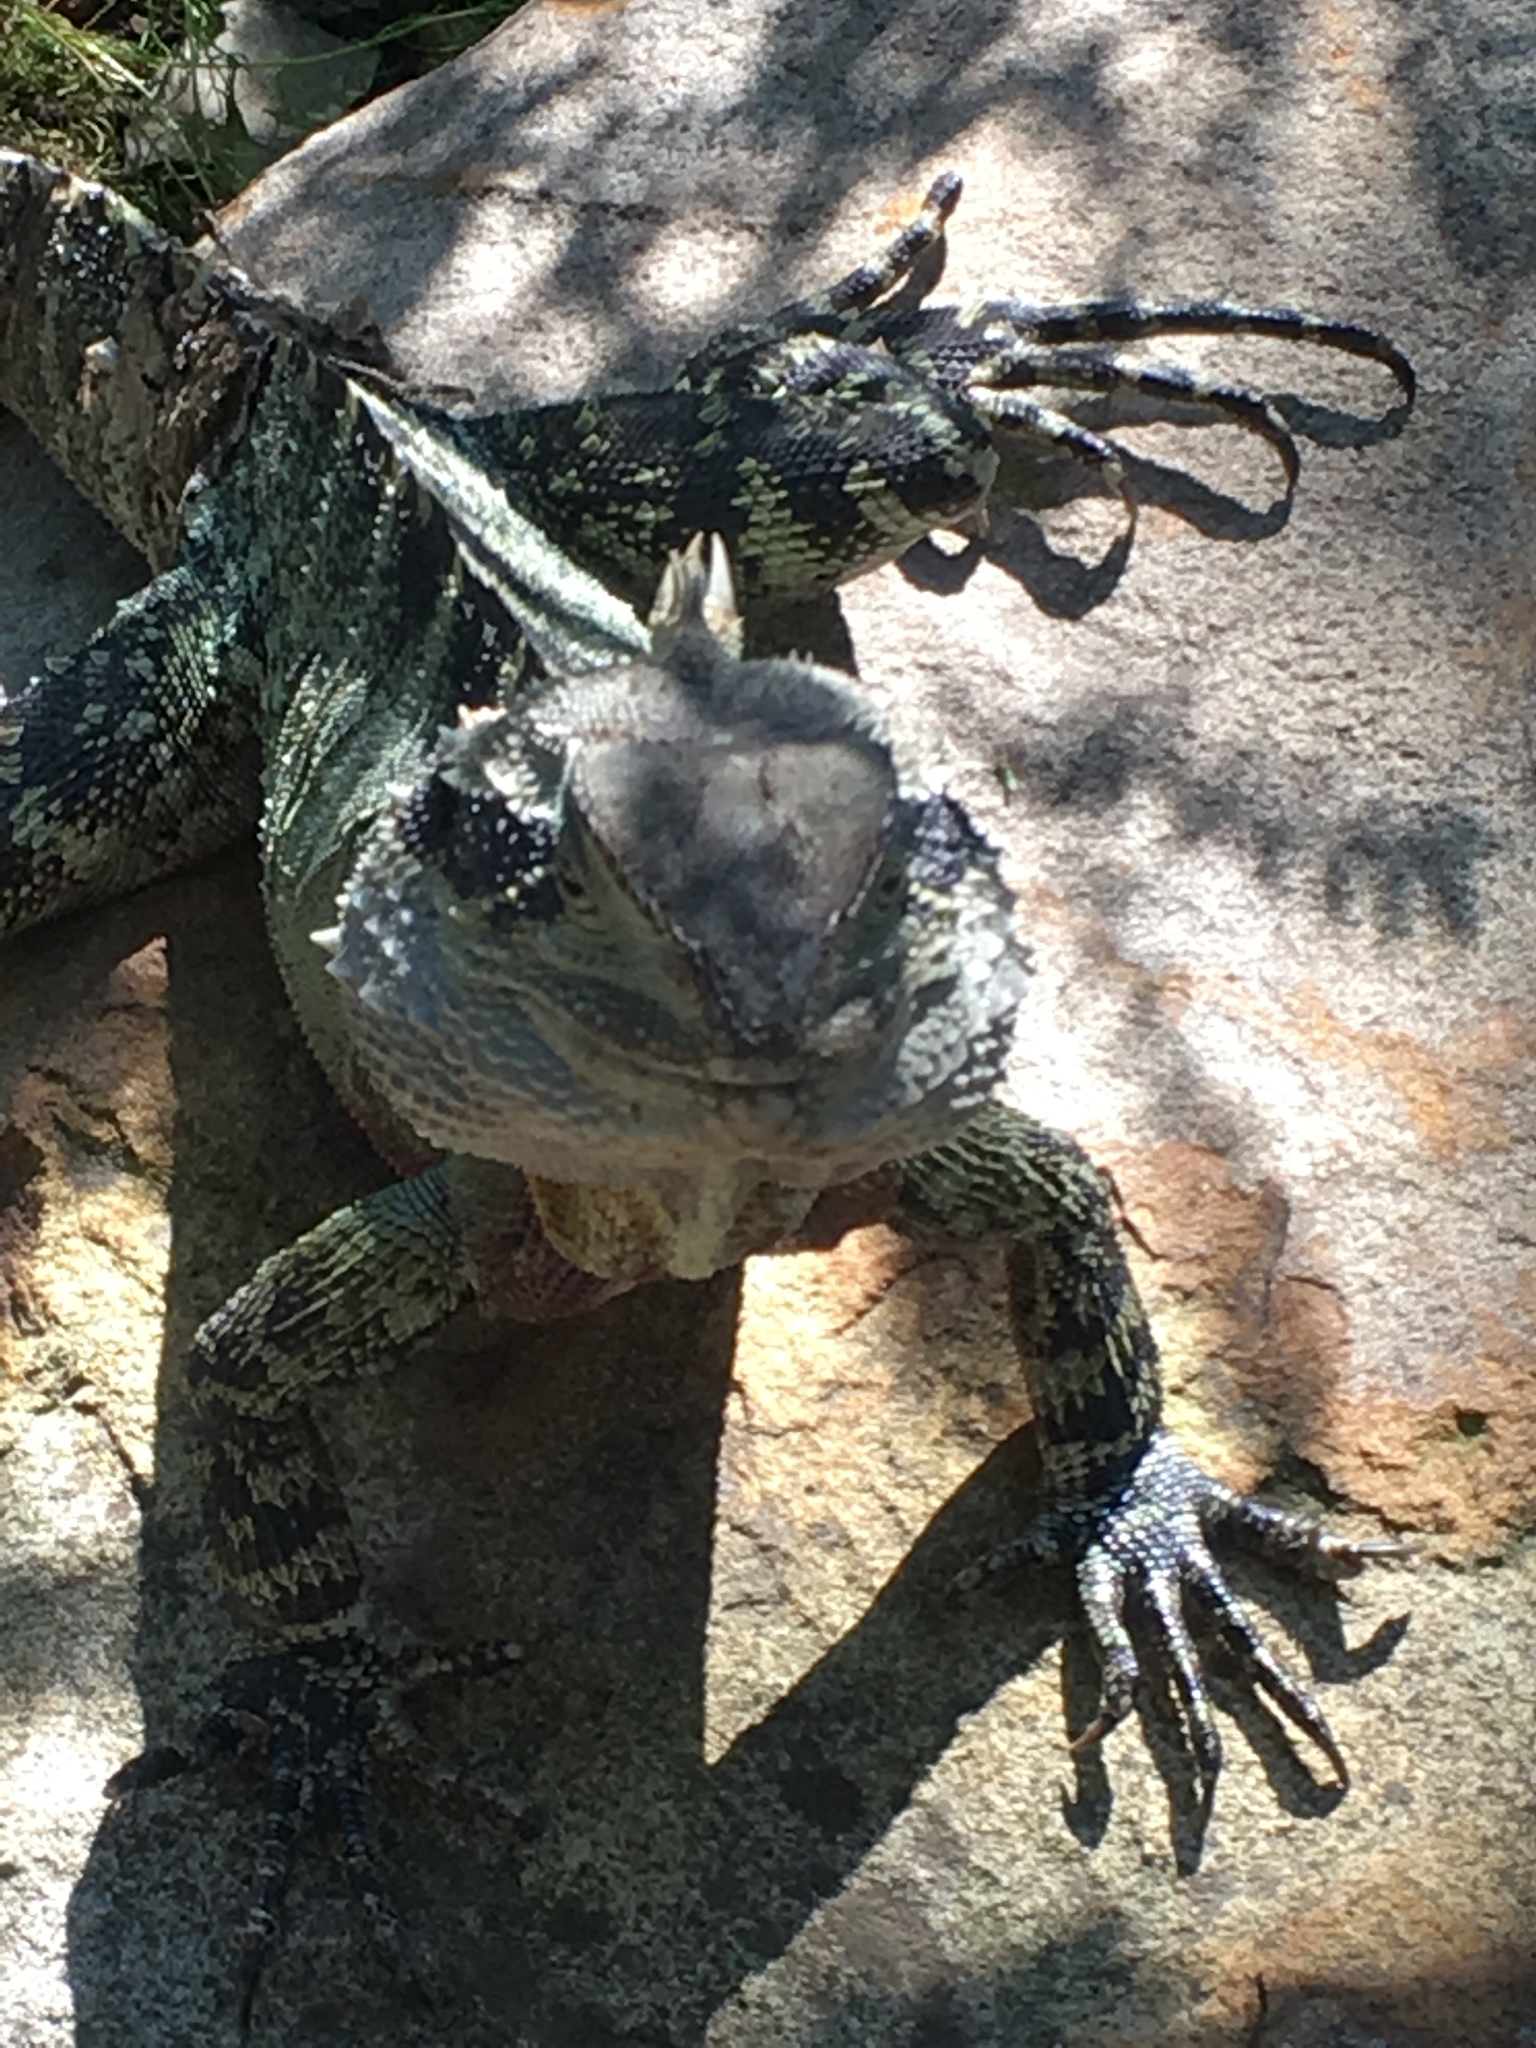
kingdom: Animalia
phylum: Chordata
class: Squamata
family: Agamidae
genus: Intellagama
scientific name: Intellagama lesueurii
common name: Eastern water dragon
